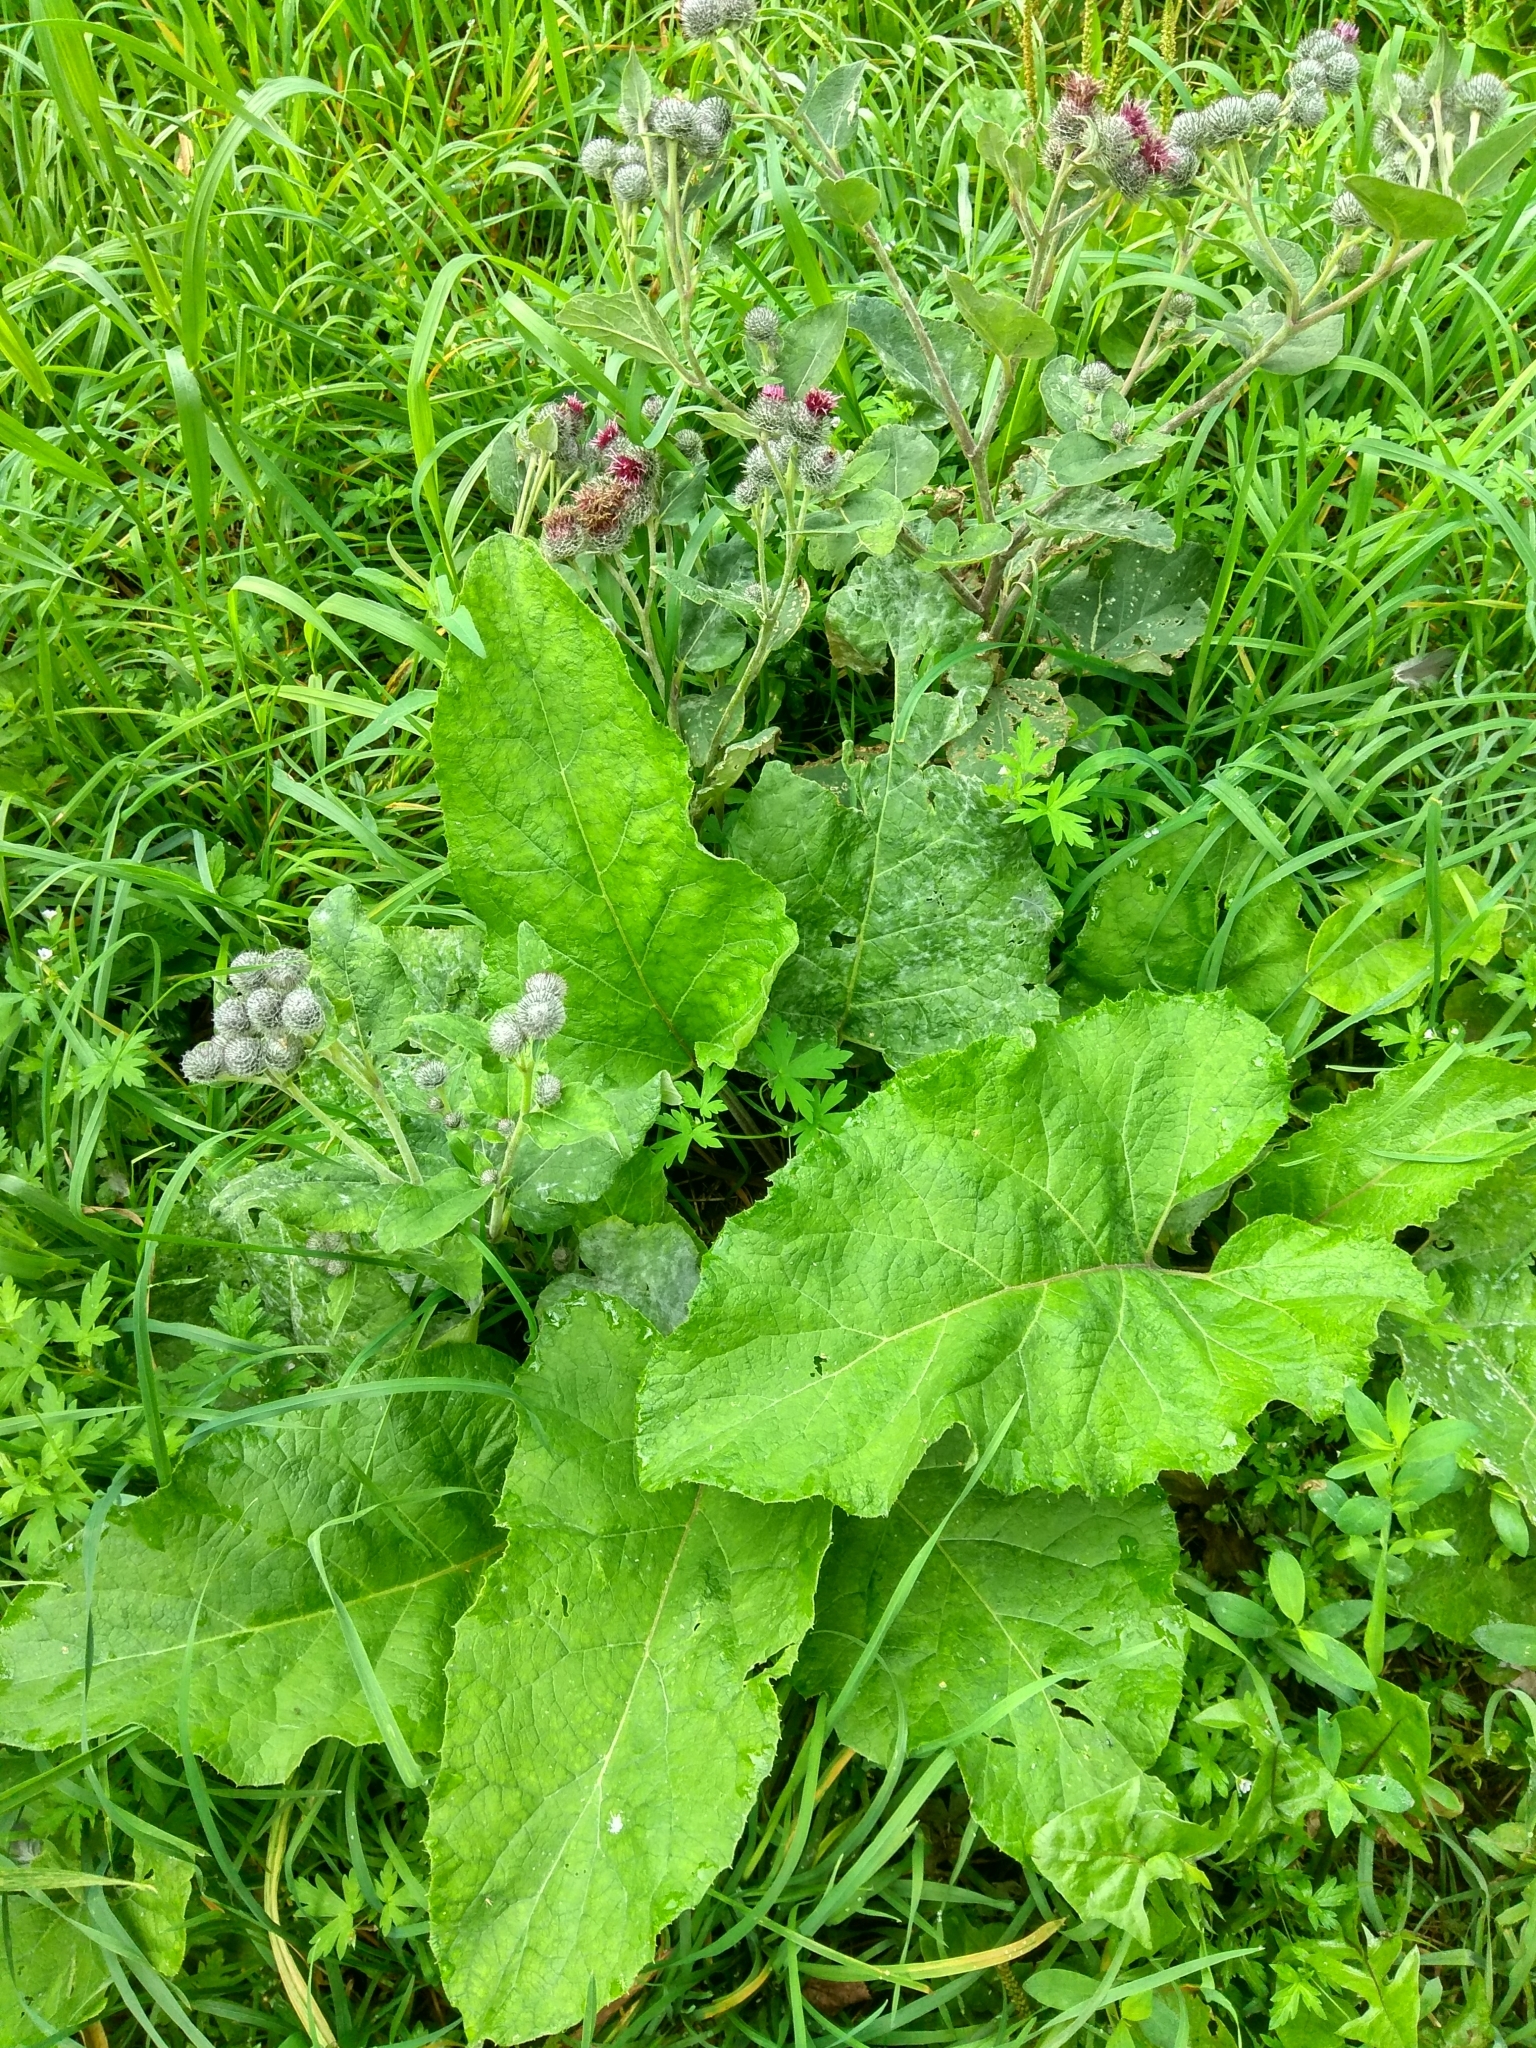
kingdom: Plantae
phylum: Tracheophyta
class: Magnoliopsida
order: Asterales
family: Asteraceae
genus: Arctium
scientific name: Arctium tomentosum
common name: Woolly burdock
